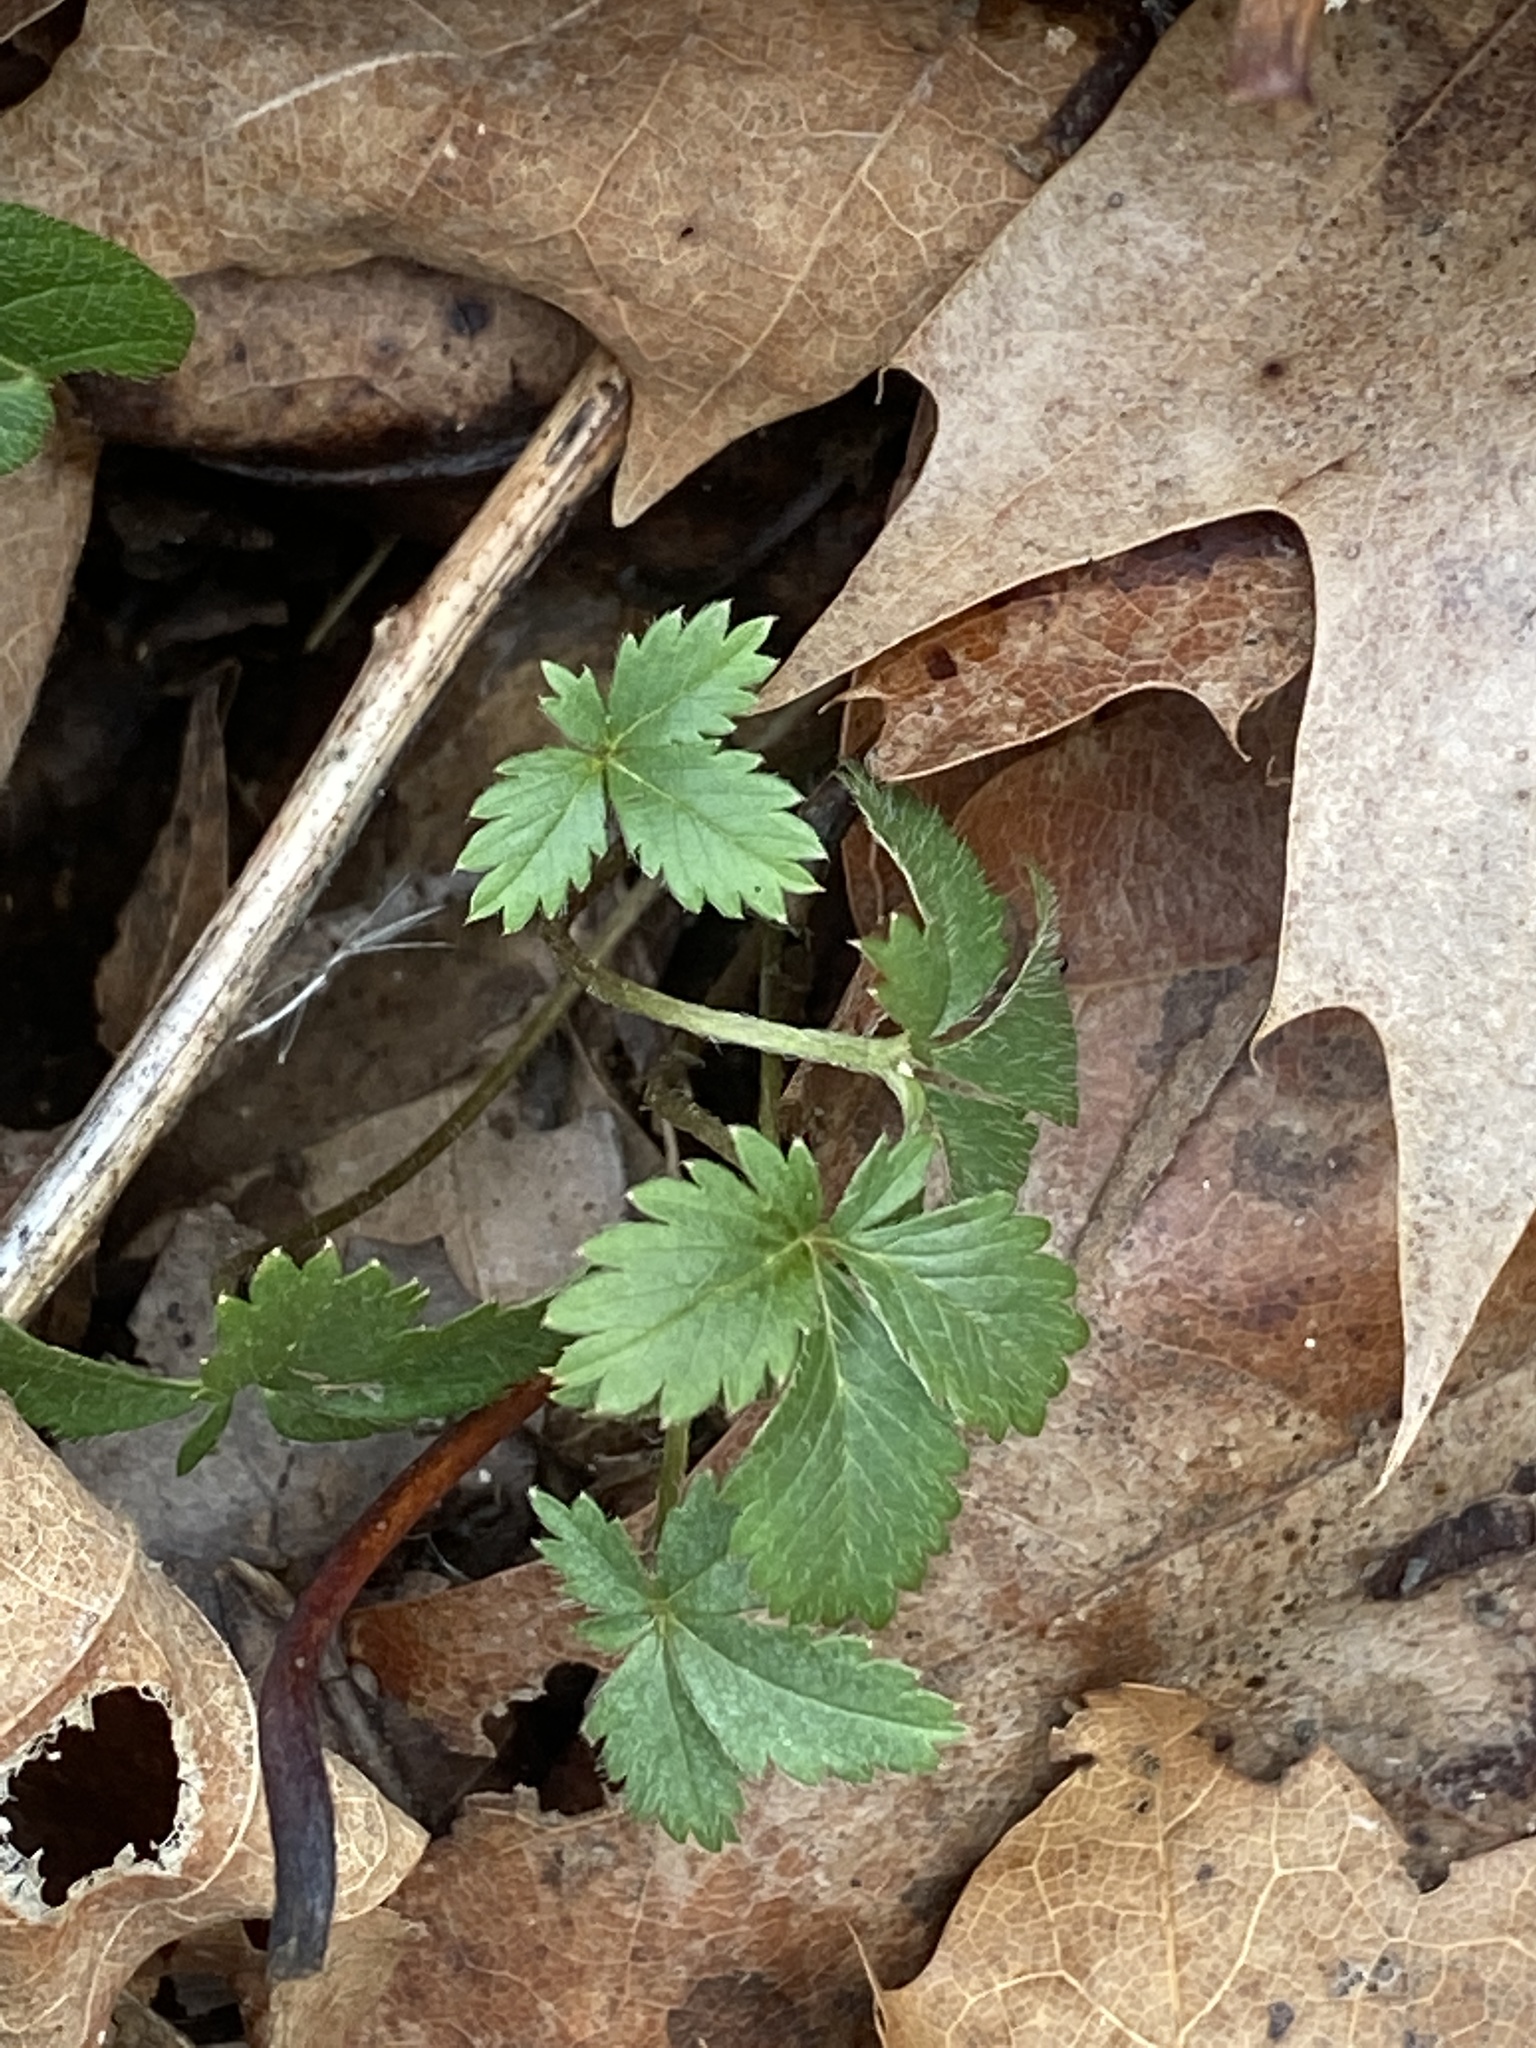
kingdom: Plantae
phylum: Tracheophyta
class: Magnoliopsida
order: Rosales
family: Rosaceae
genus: Potentilla
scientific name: Potentilla canadensis
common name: Canada cinquefoil
